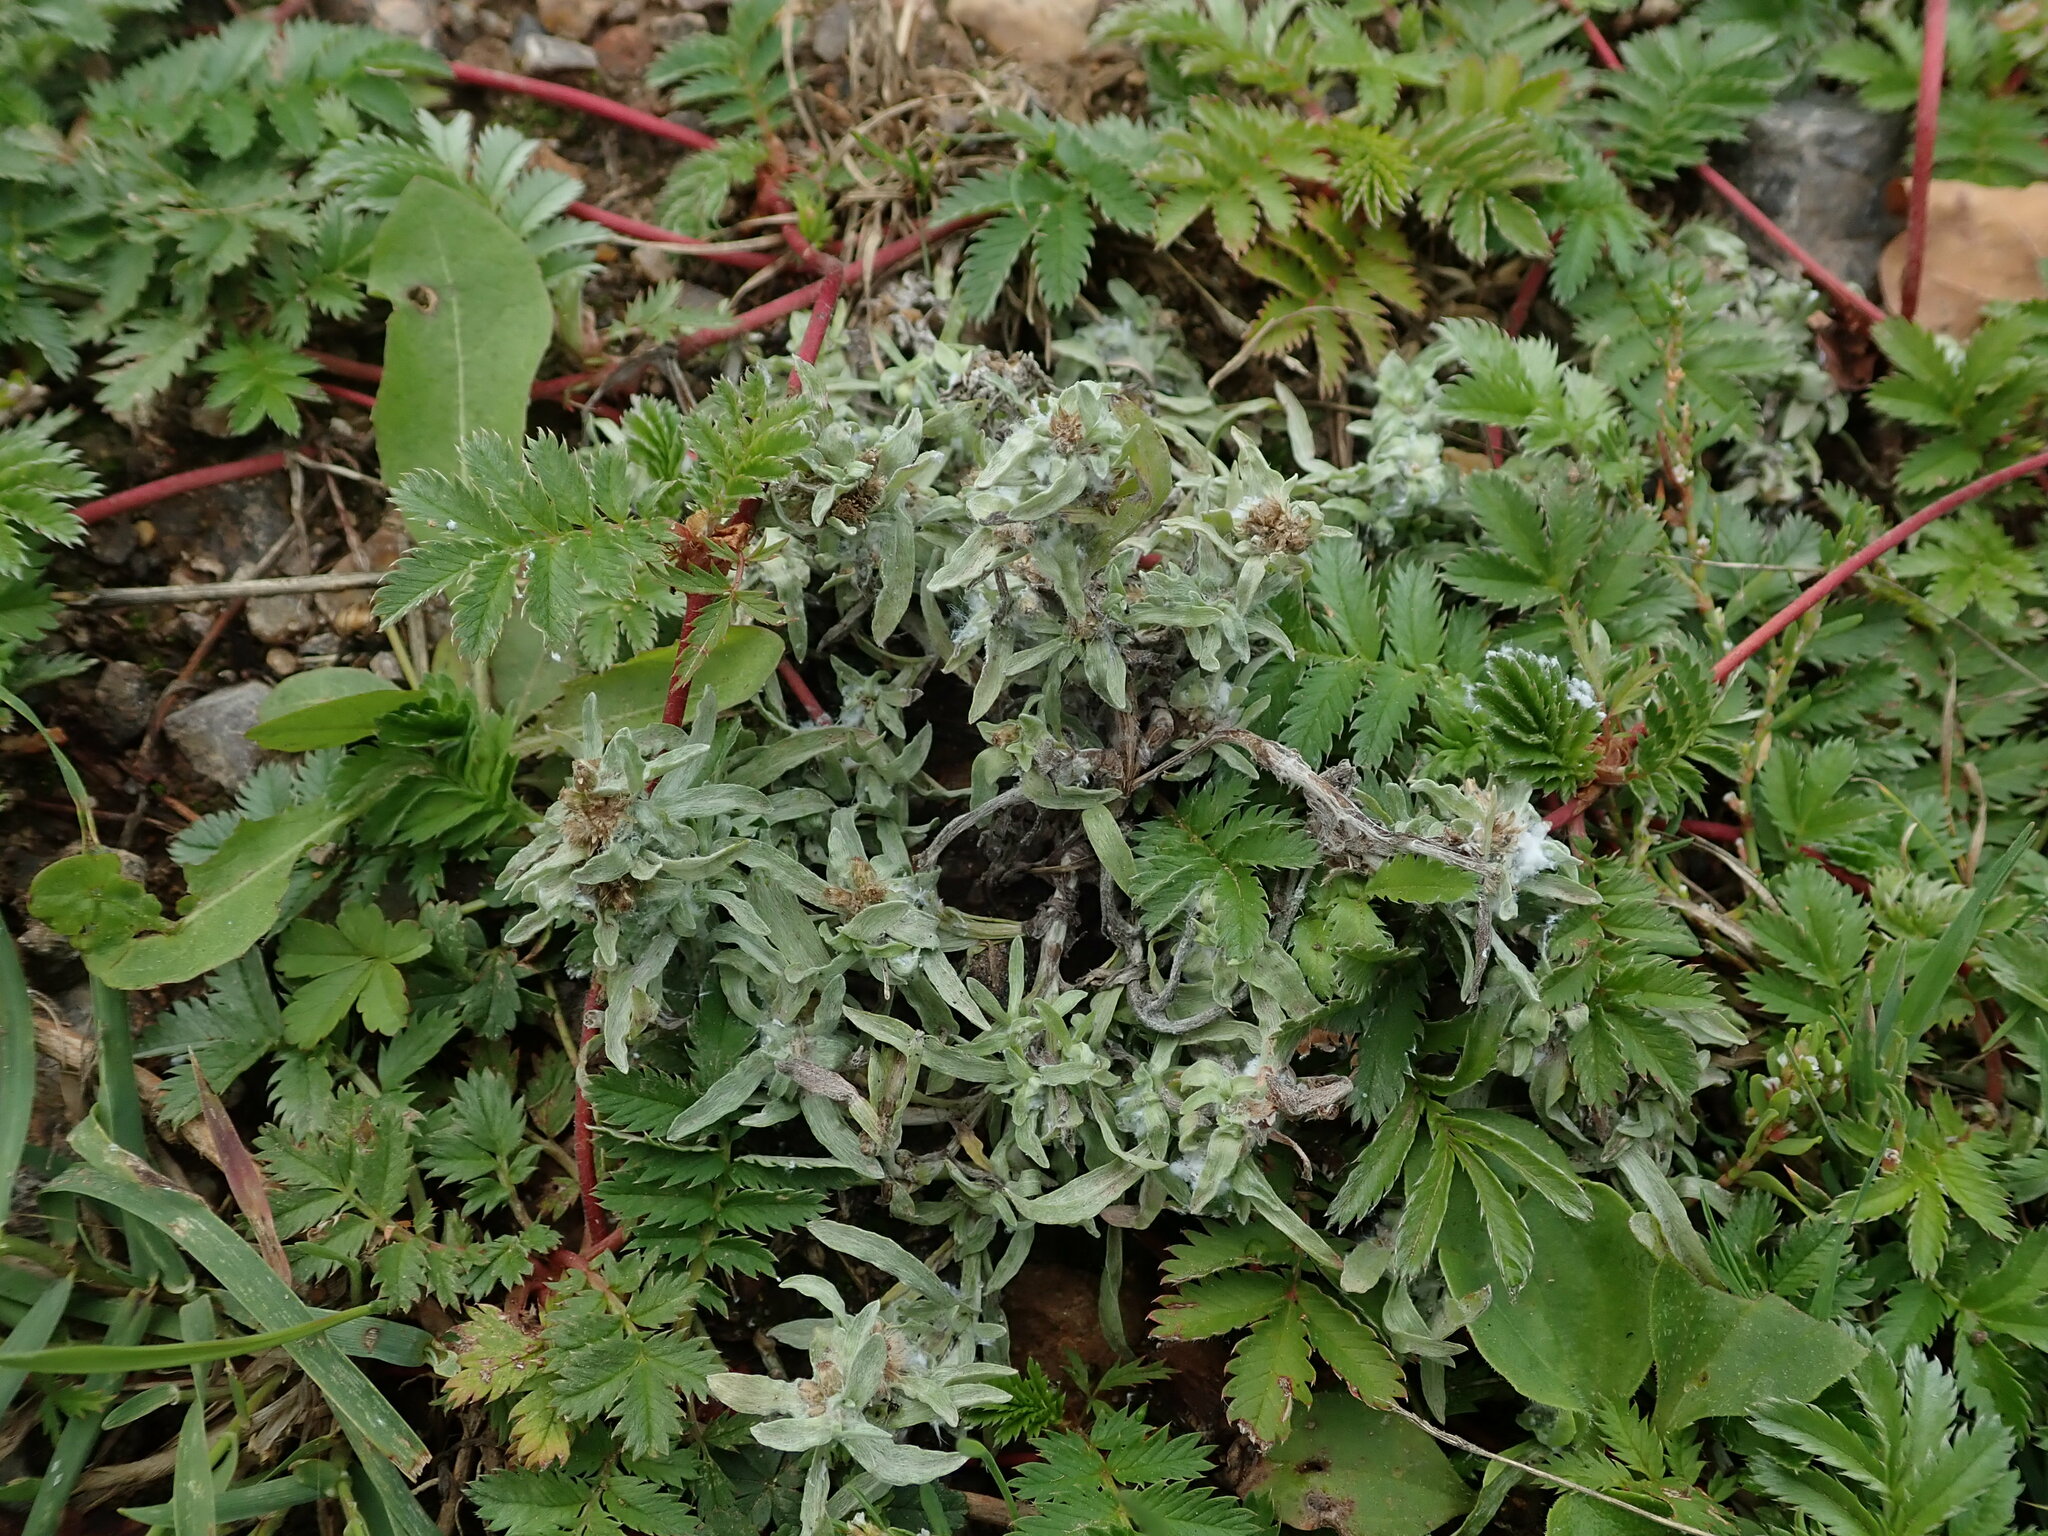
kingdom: Plantae
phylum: Tracheophyta
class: Magnoliopsida
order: Asterales
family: Asteraceae
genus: Gnaphalium
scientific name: Gnaphalium uliginosum
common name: Marsh cudweed
